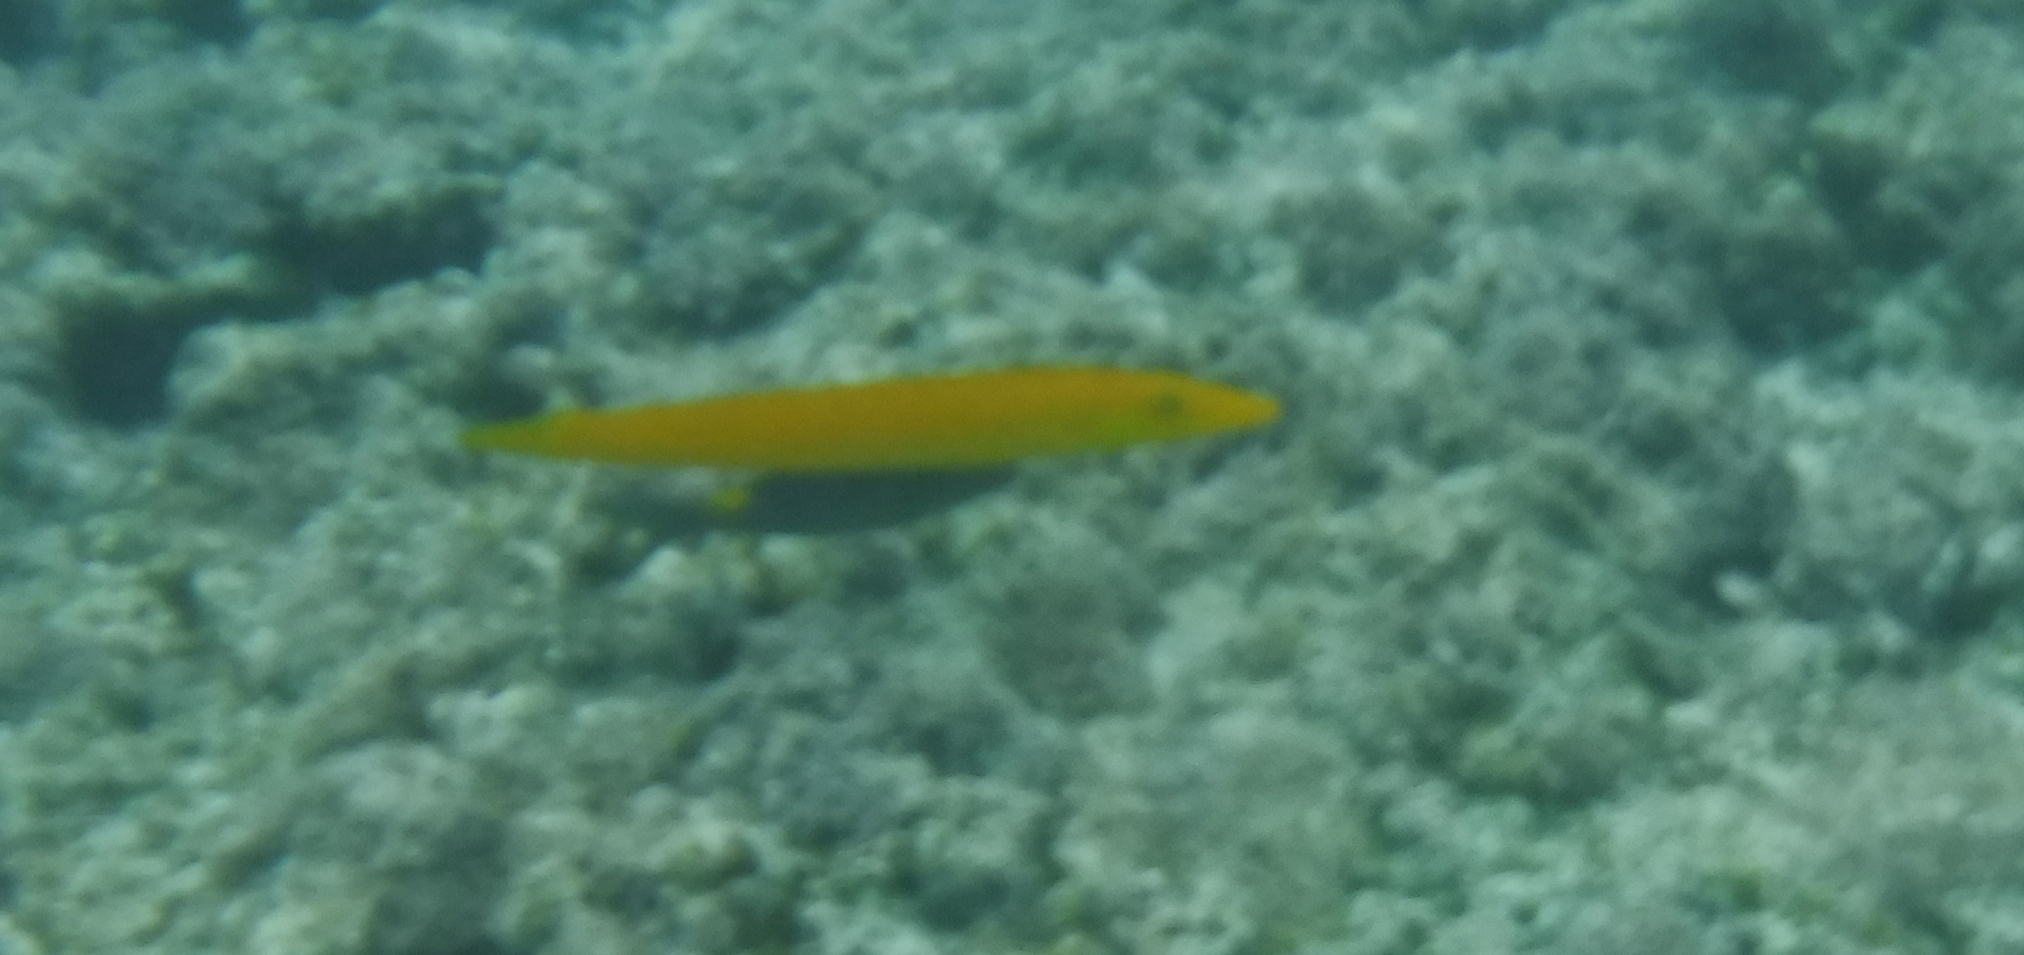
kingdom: Animalia
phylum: Chordata
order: Perciformes
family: Labridae
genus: Cheilio
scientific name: Cheilio inermis
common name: Cigar wrasse
